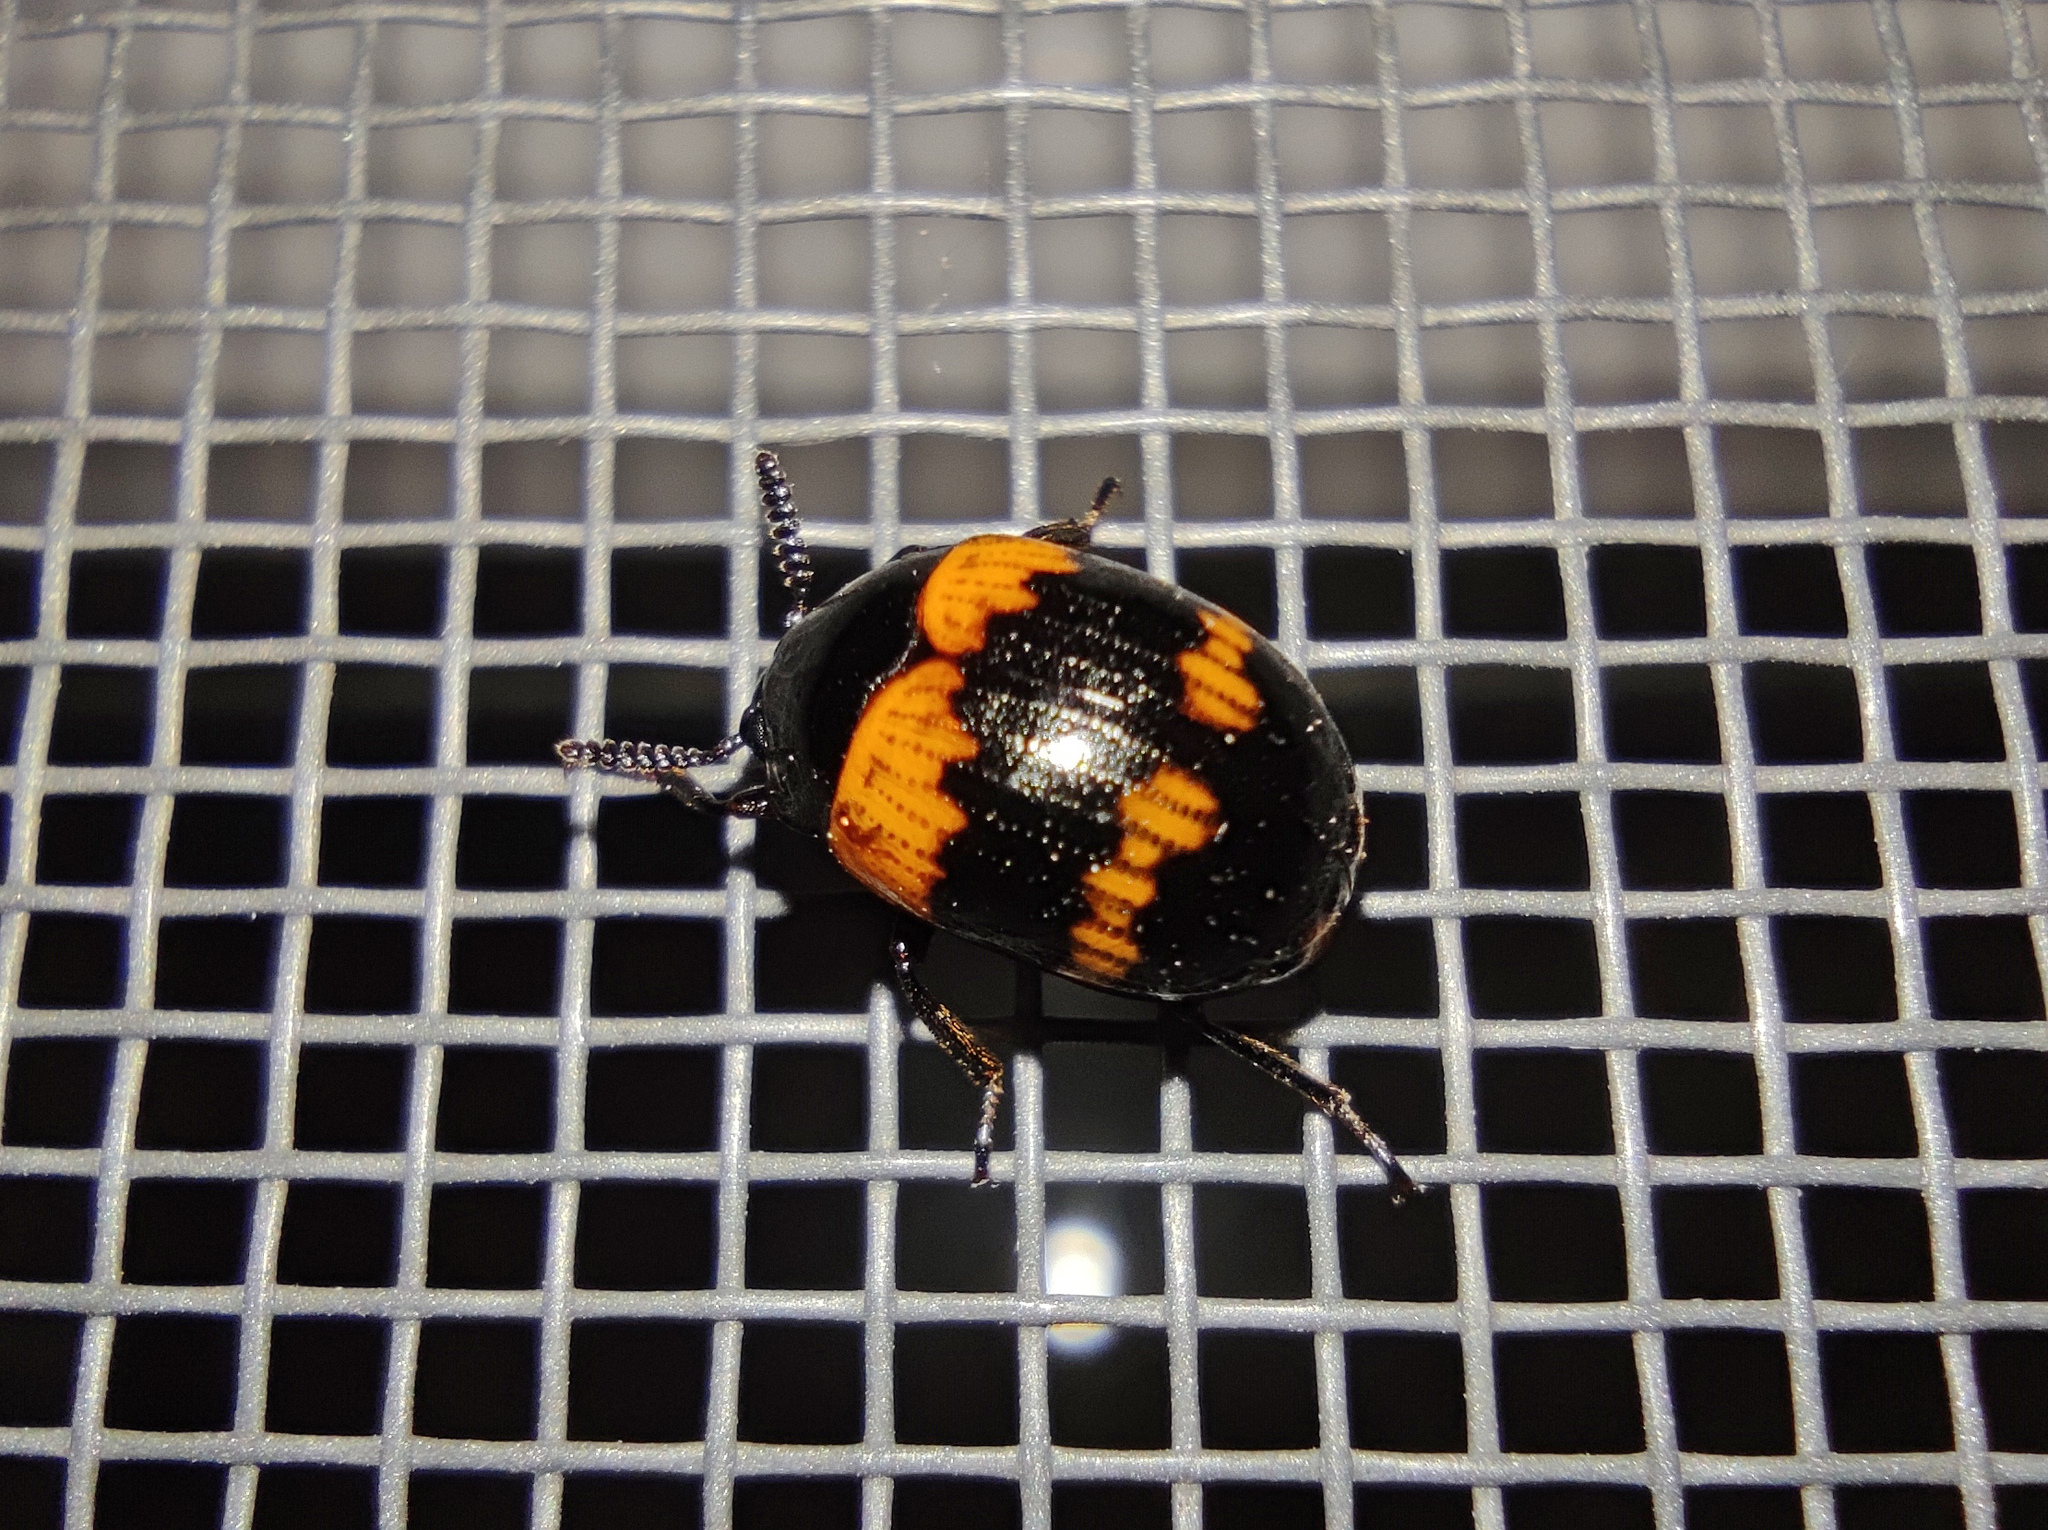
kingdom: Animalia
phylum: Arthropoda
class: Insecta
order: Coleoptera
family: Tenebrionidae
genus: Diaperis
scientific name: Diaperis boleti
